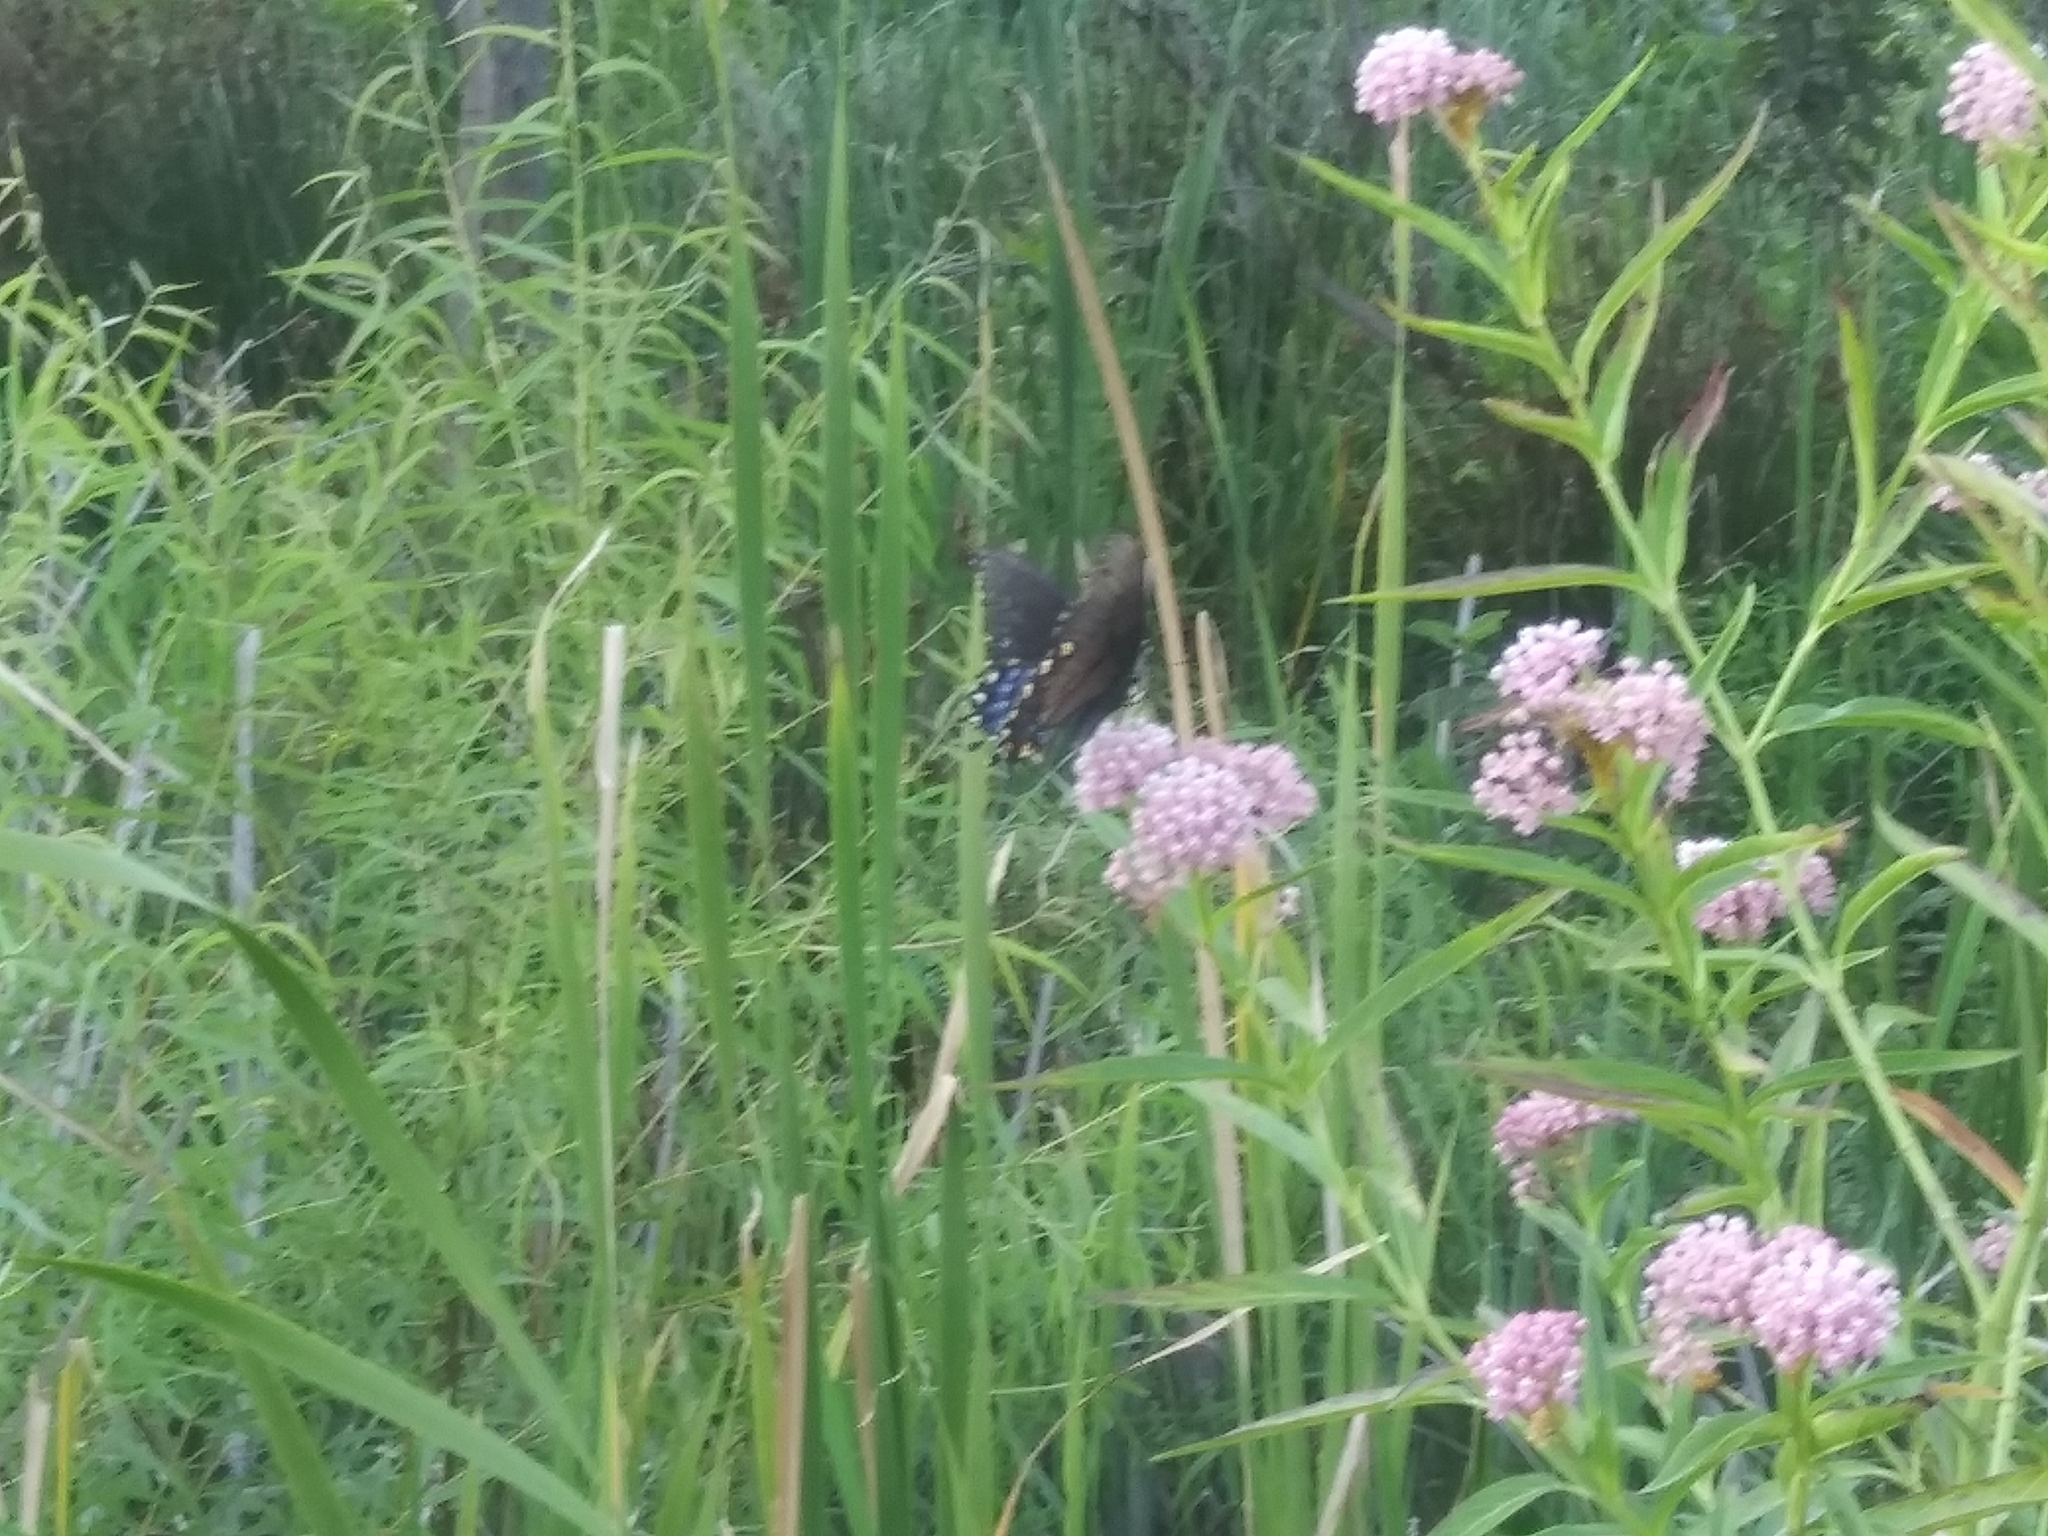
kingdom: Animalia
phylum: Arthropoda
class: Insecta
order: Lepidoptera
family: Papilionidae
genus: Papilio
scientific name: Papilio glaucus
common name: Tiger swallowtail
